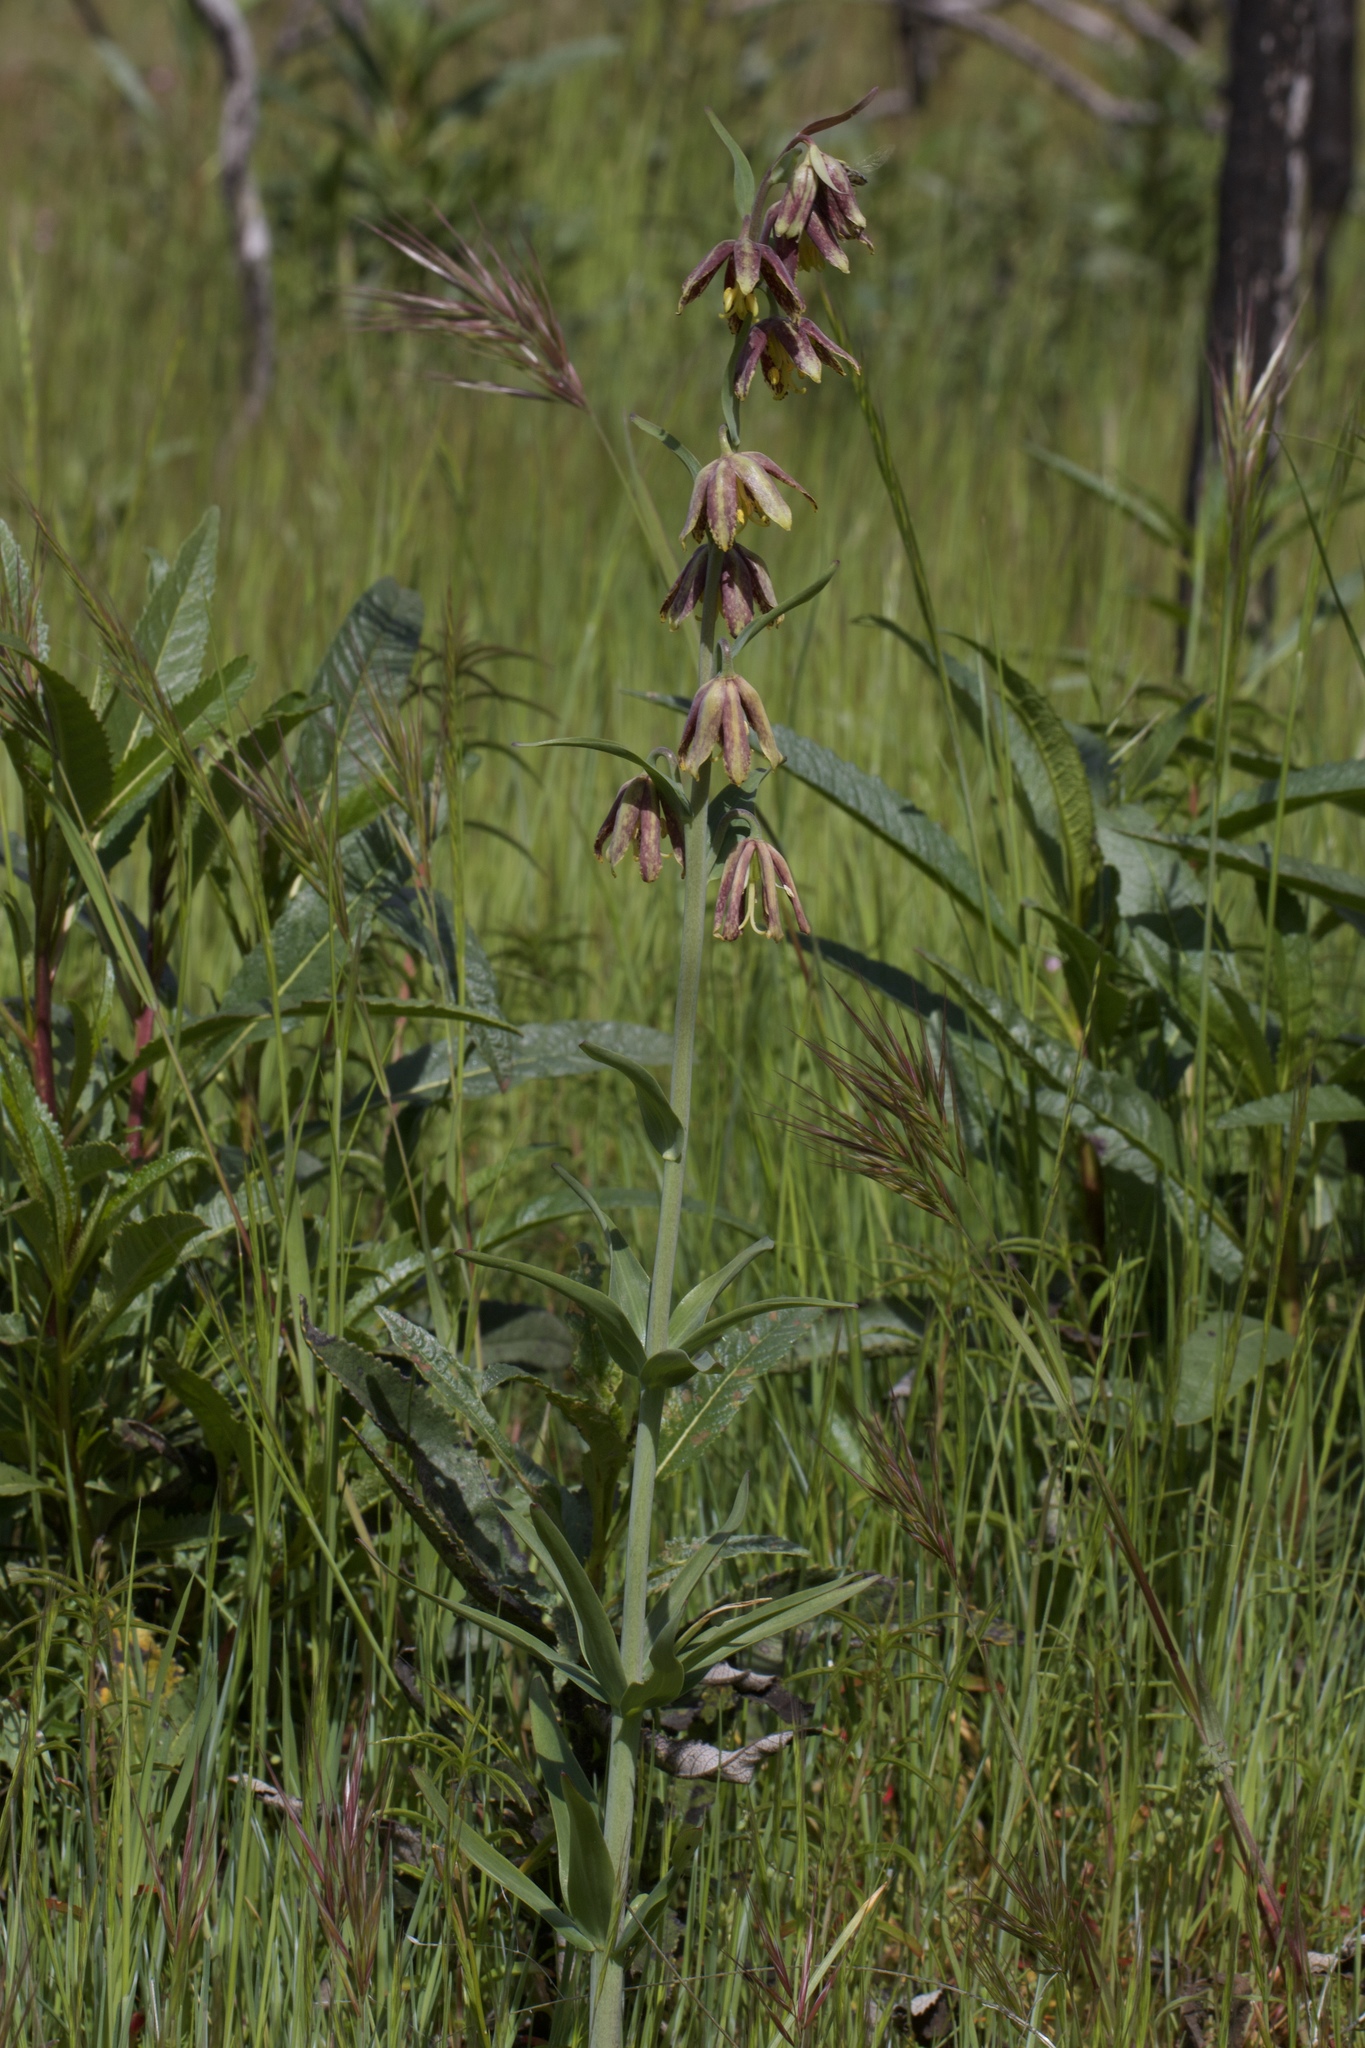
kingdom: Plantae
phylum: Tracheophyta
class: Liliopsida
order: Liliales
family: Liliaceae
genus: Fritillaria
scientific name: Fritillaria affinis
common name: Ojai fritillary
